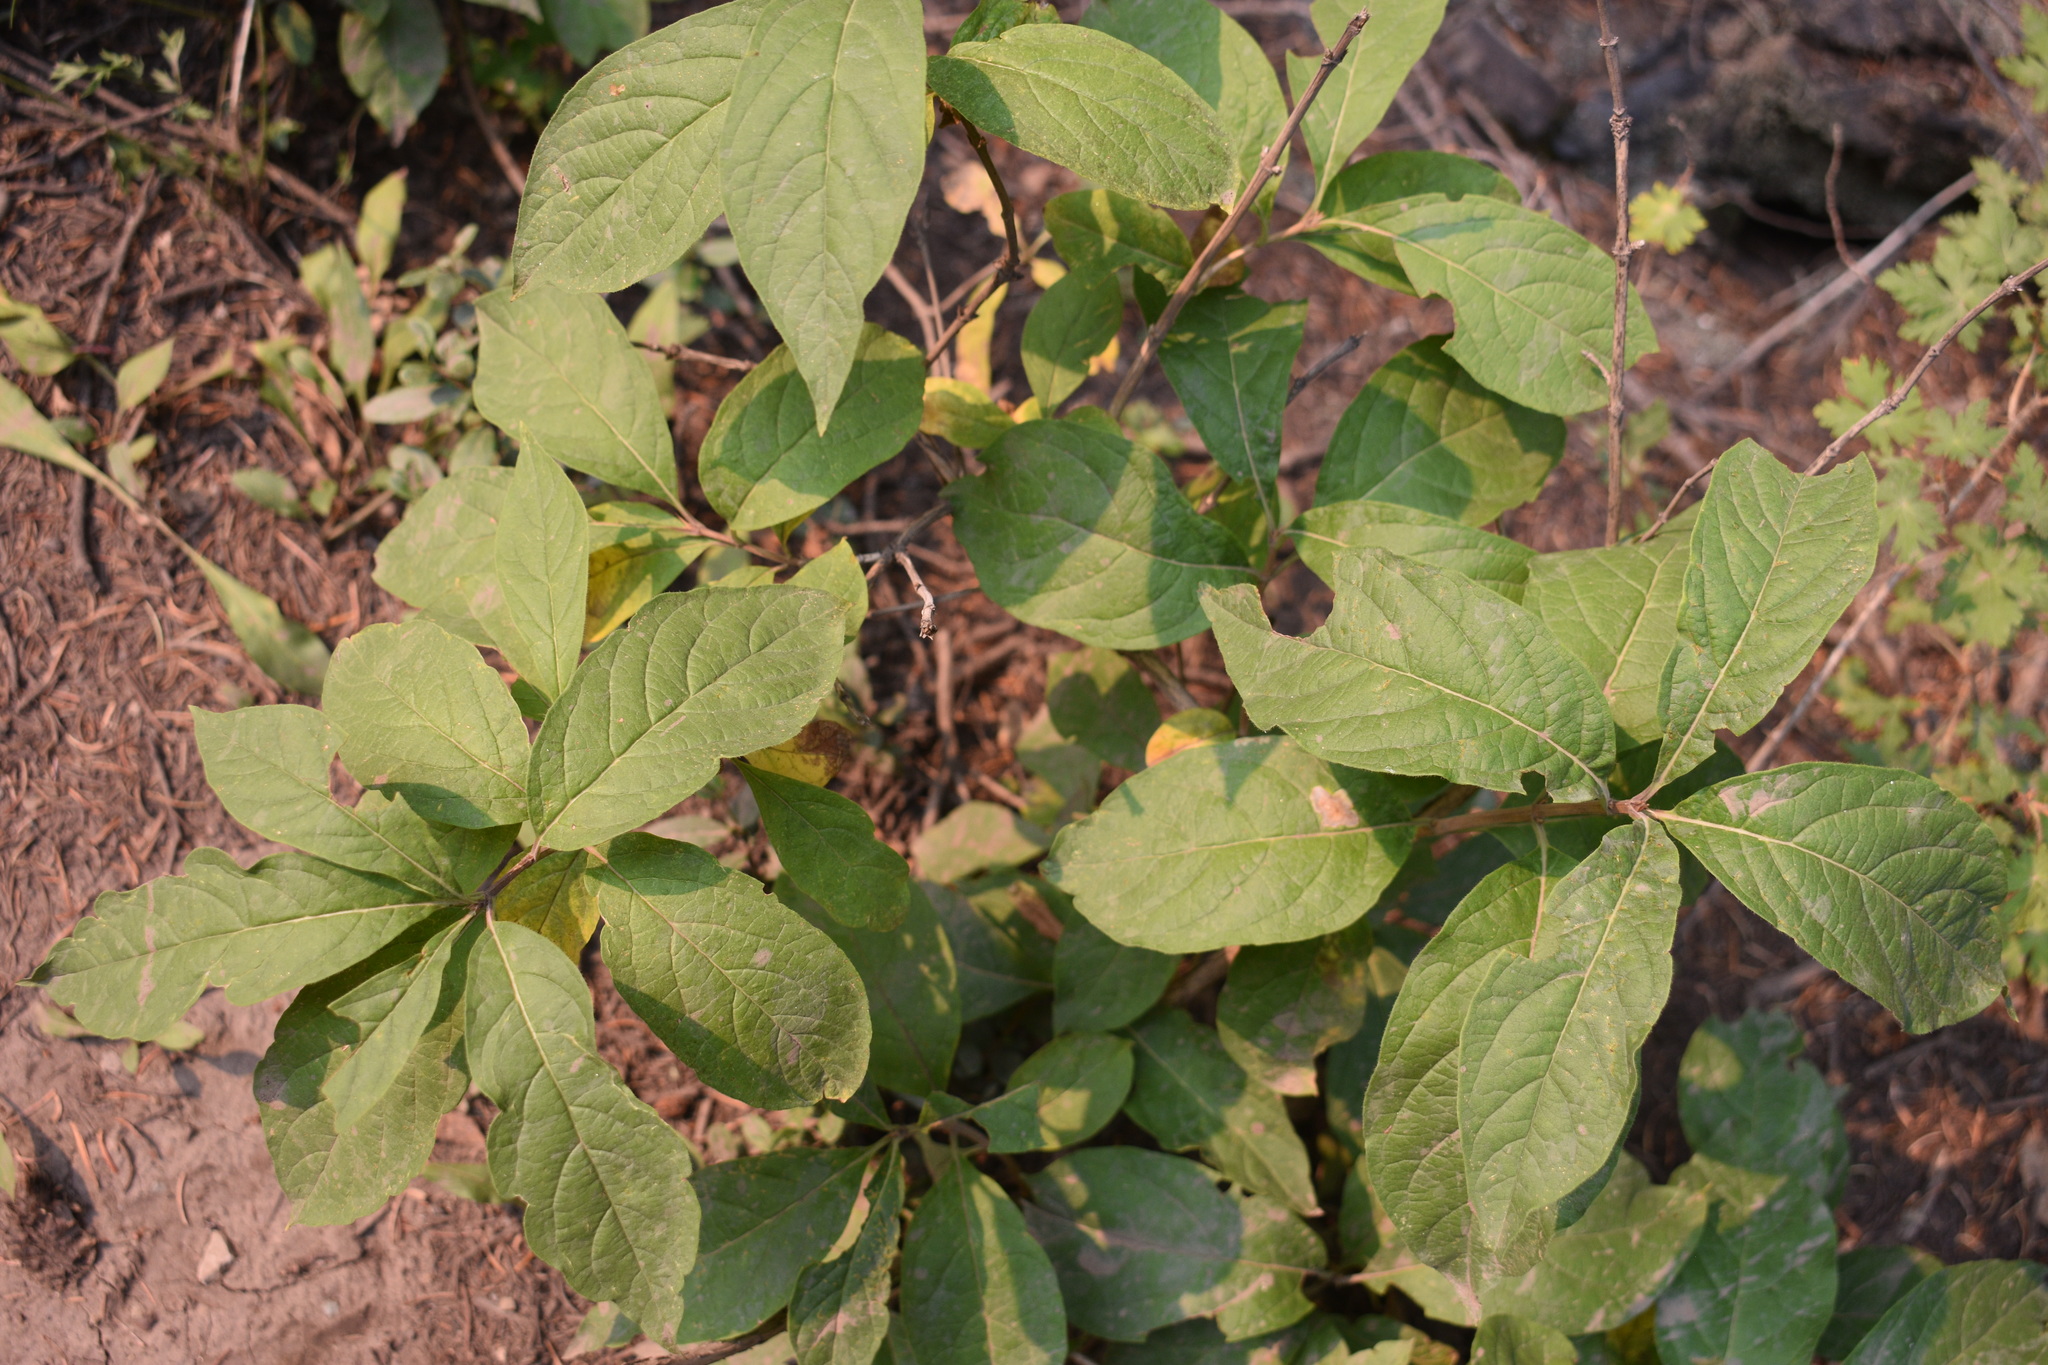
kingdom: Plantae
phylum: Tracheophyta
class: Magnoliopsida
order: Dipsacales
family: Caprifoliaceae
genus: Lonicera
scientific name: Lonicera involucrata
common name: Californian honeysuckle
